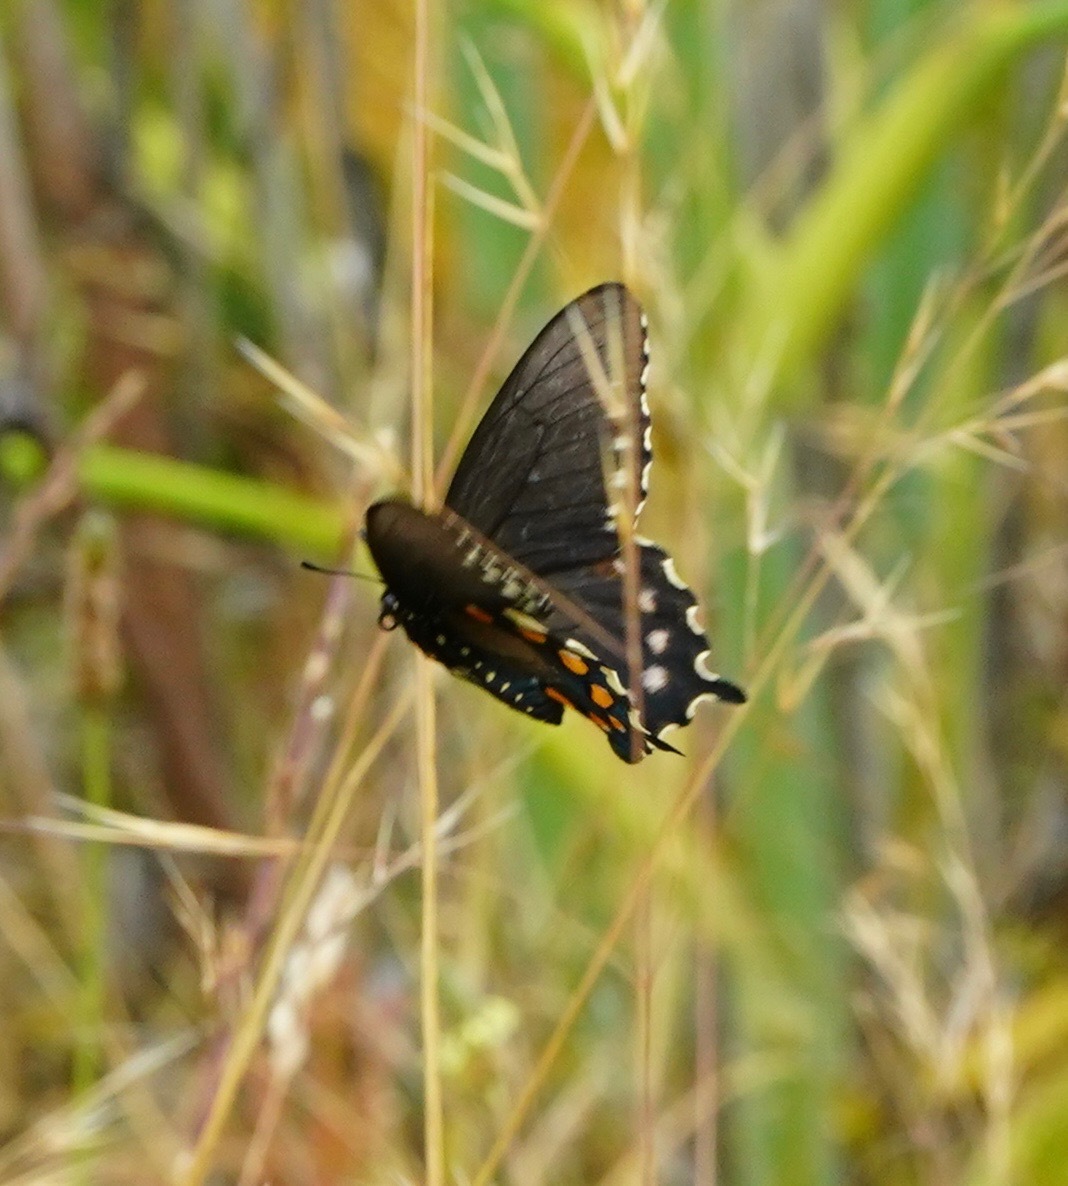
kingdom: Animalia
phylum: Arthropoda
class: Insecta
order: Lepidoptera
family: Papilionidae
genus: Battus
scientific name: Battus philenor
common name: Pipevine swallowtail
